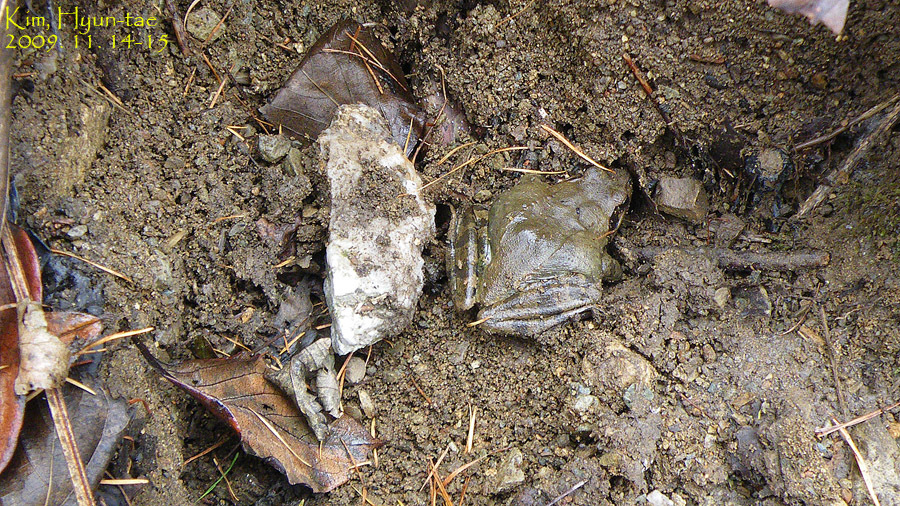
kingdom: Animalia
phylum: Chordata
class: Amphibia
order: Anura
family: Ranidae
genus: Rana
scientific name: Rana uenoi
